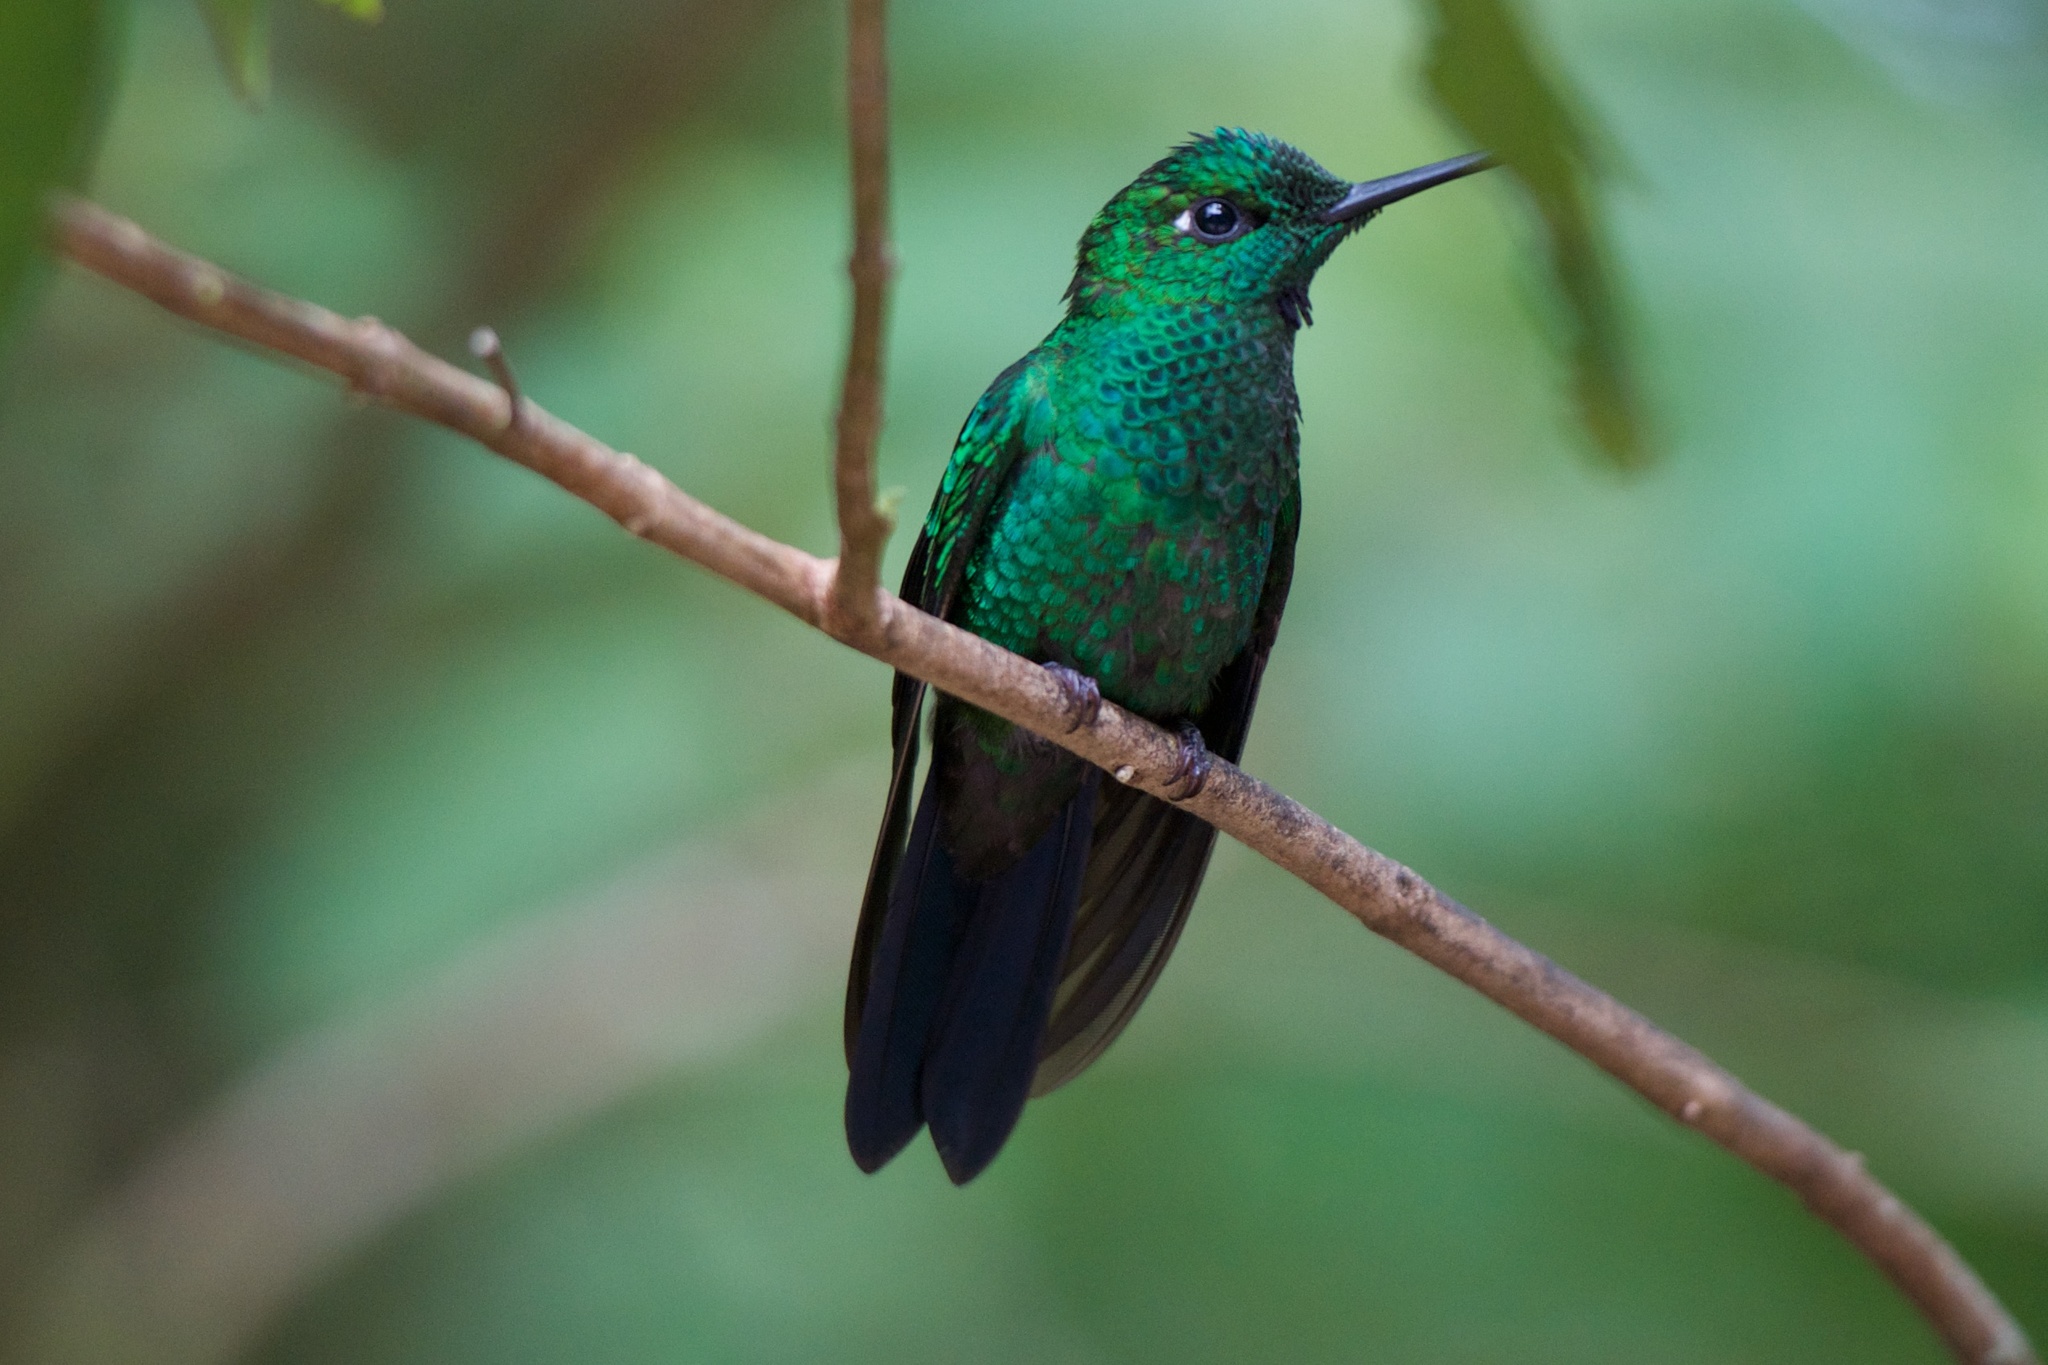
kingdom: Animalia
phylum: Chordata
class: Aves
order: Apodiformes
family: Trochilidae
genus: Heliodoxa
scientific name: Heliodoxa jacula
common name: Green-crowned brilliant
